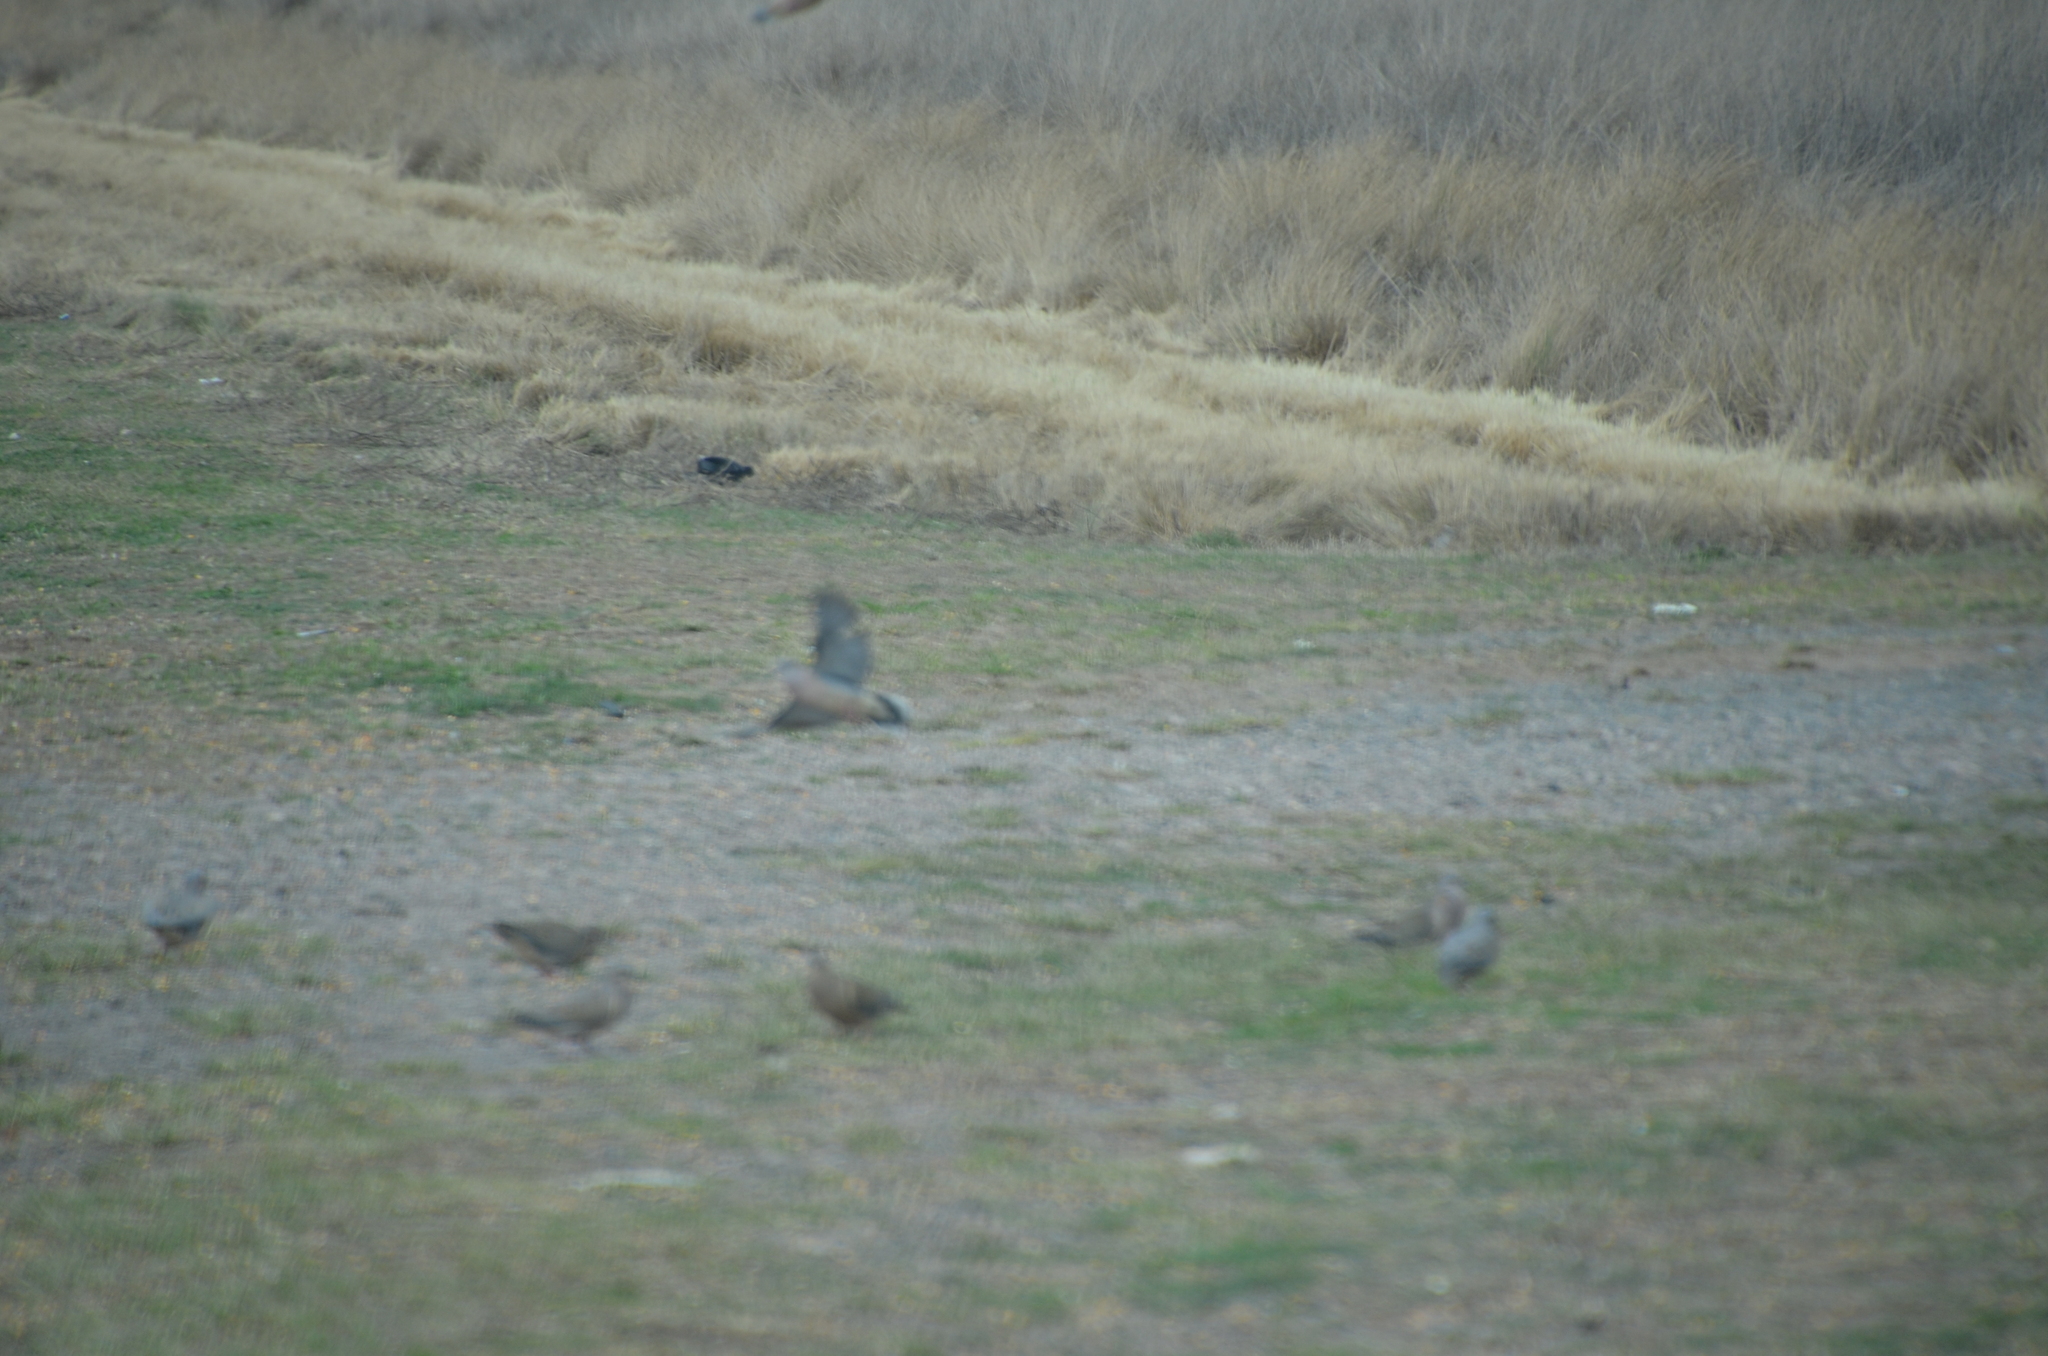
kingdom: Animalia
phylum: Chordata
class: Aves
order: Columbiformes
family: Columbidae
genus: Zenaida
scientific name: Zenaida auriculata
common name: Eared dove
